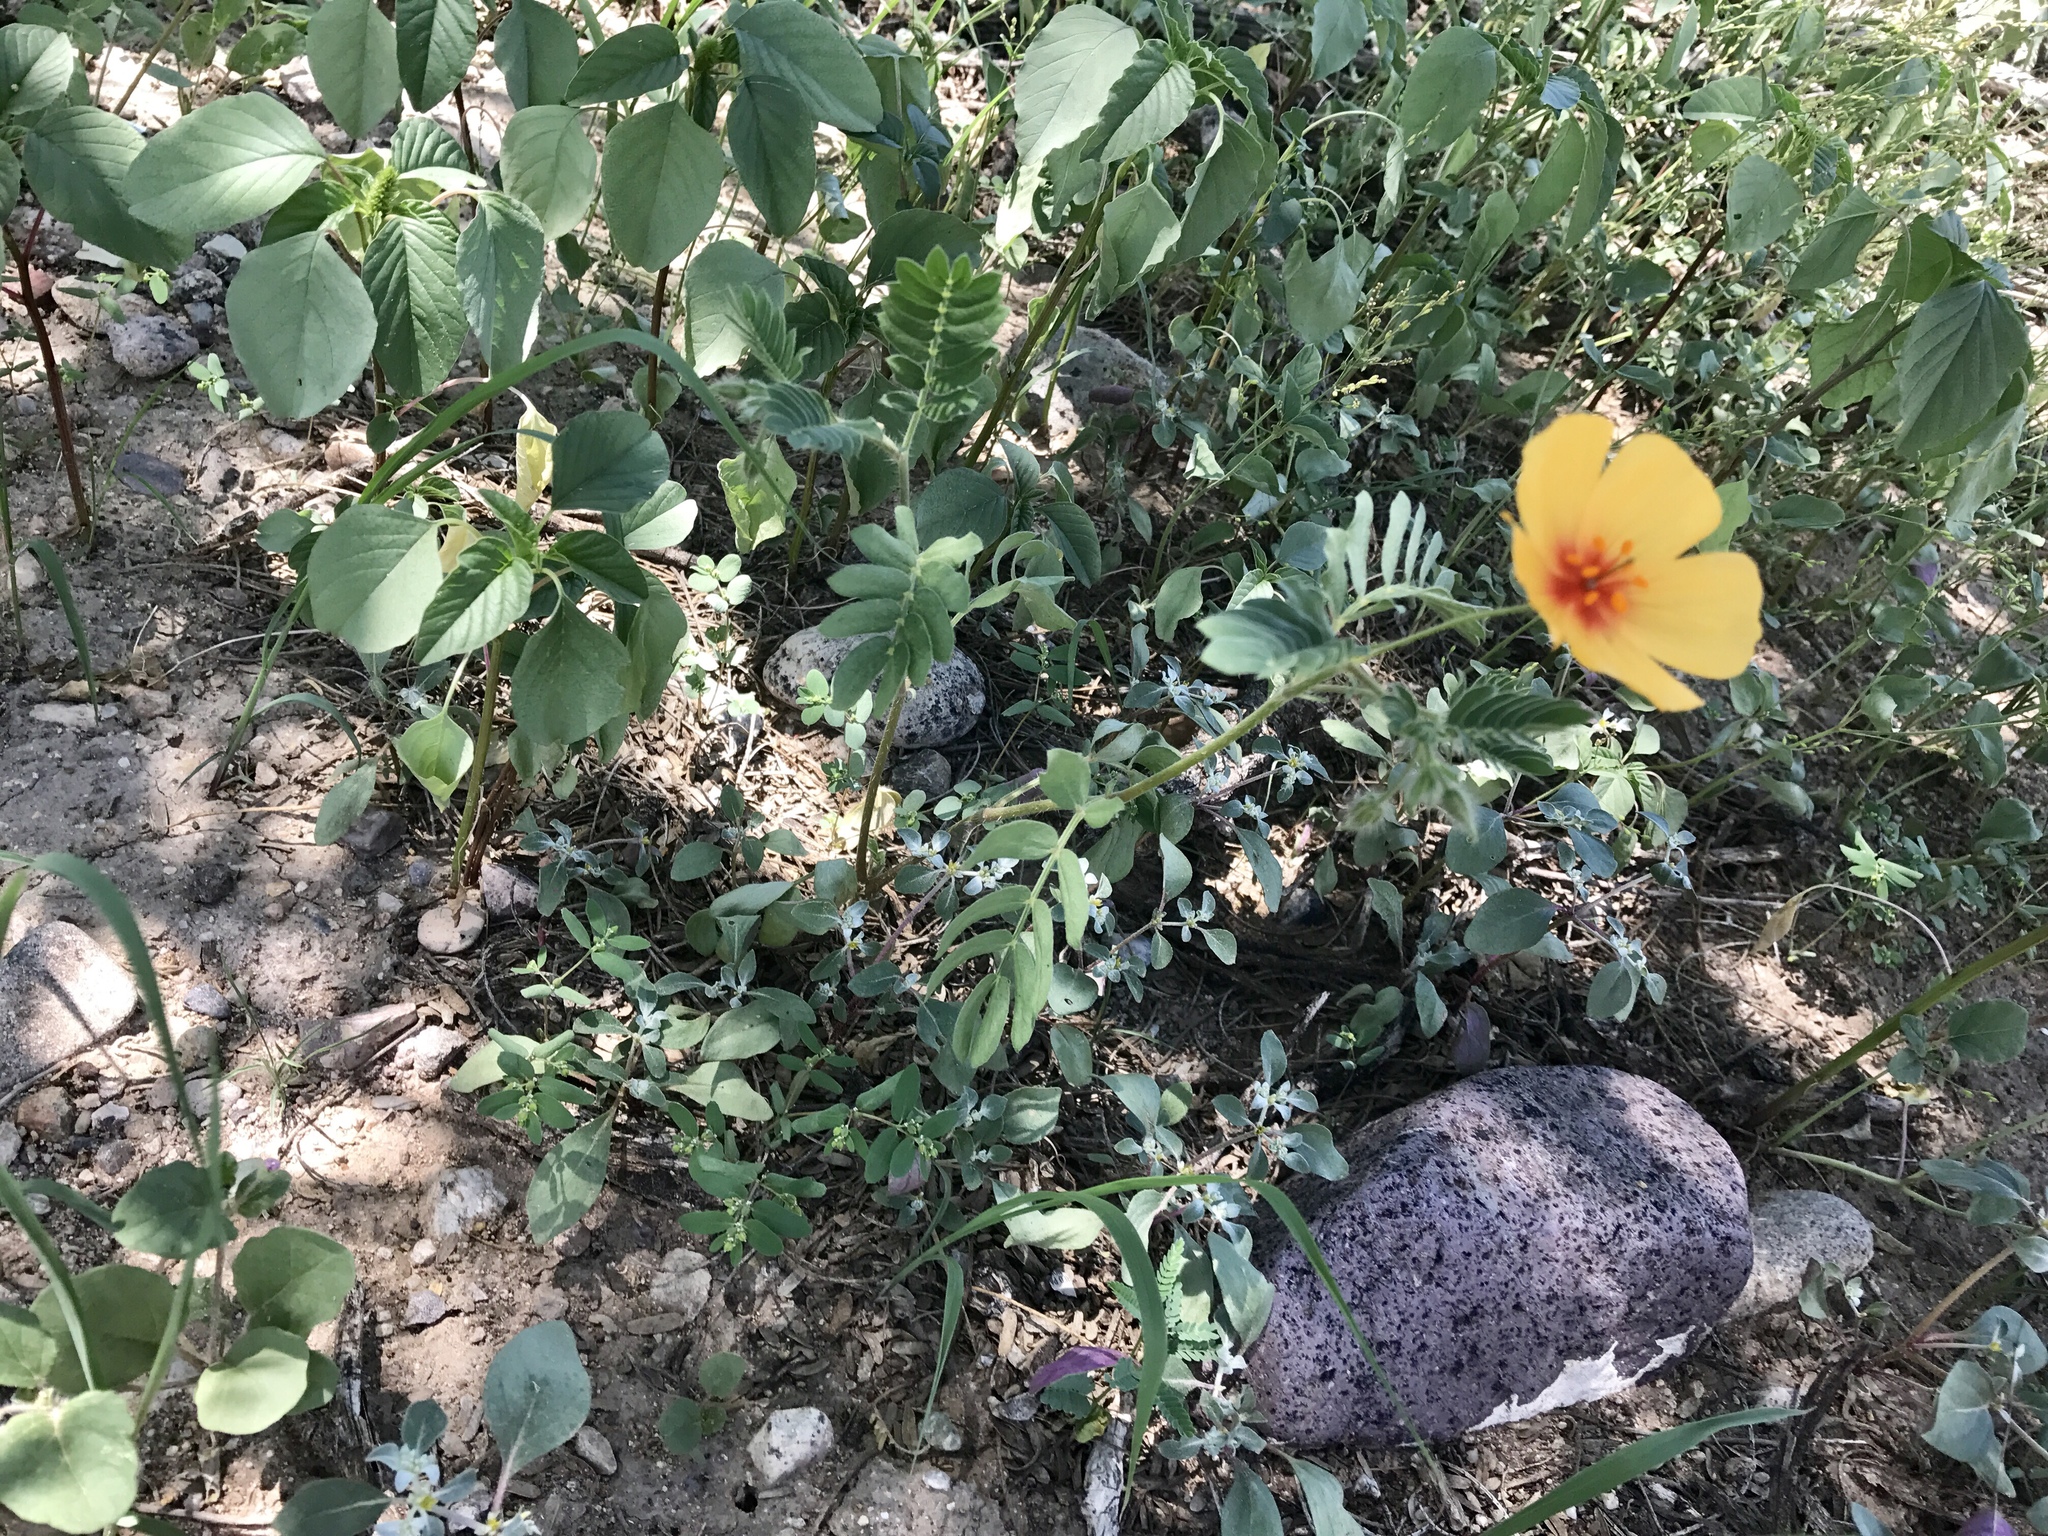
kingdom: Plantae
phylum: Tracheophyta
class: Magnoliopsida
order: Zygophyllales
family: Zygophyllaceae
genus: Kallstroemia
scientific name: Kallstroemia grandiflora
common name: Arizona-poppy
